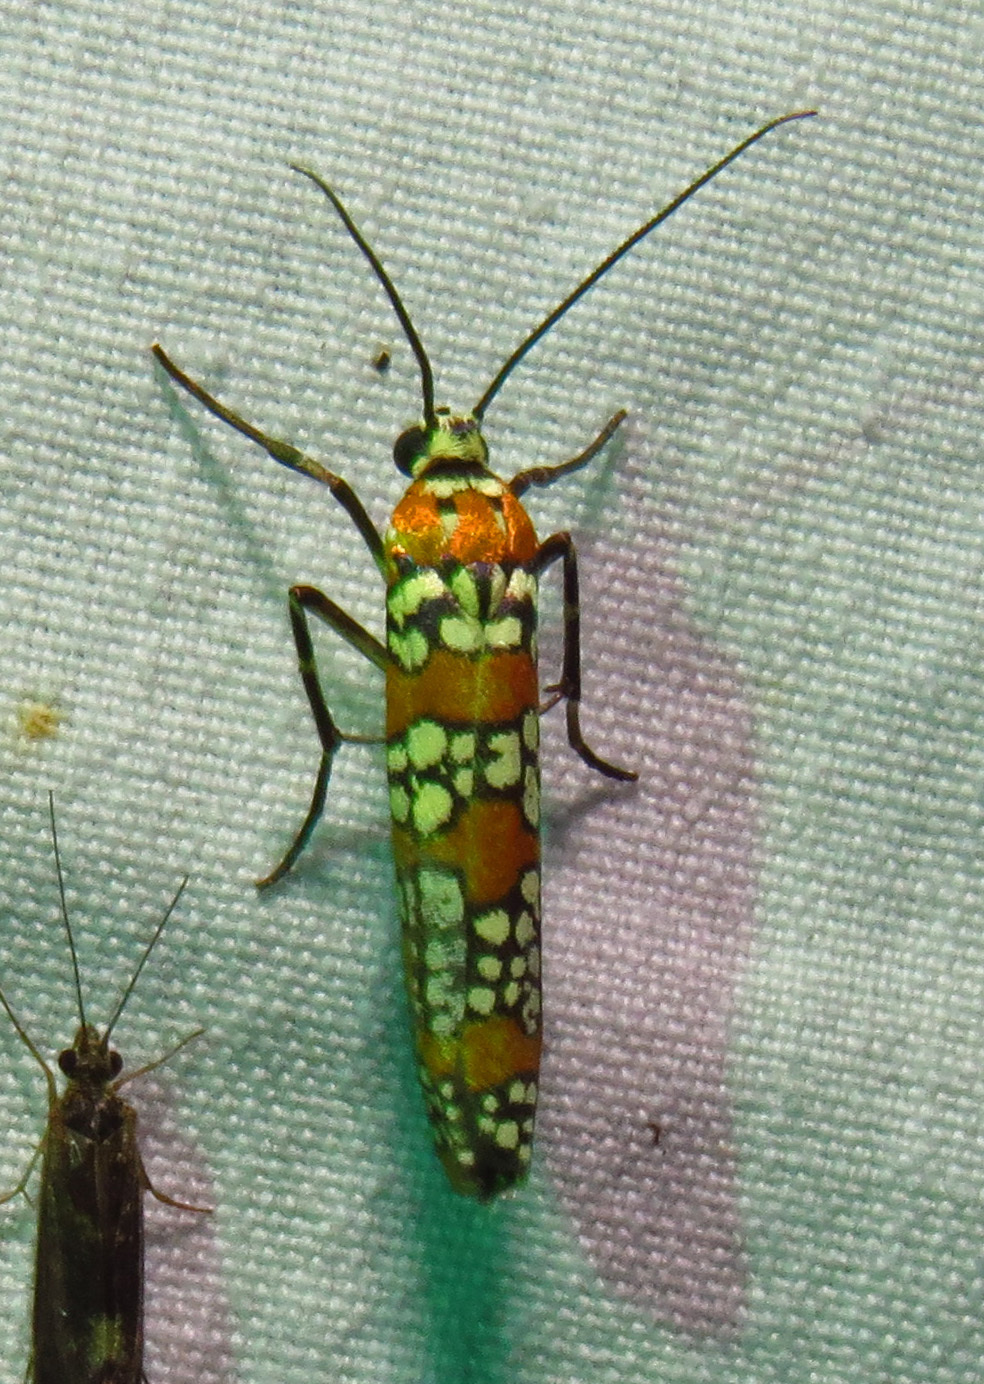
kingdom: Animalia
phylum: Arthropoda
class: Insecta
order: Lepidoptera
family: Attevidae
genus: Atteva
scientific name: Atteva punctella
